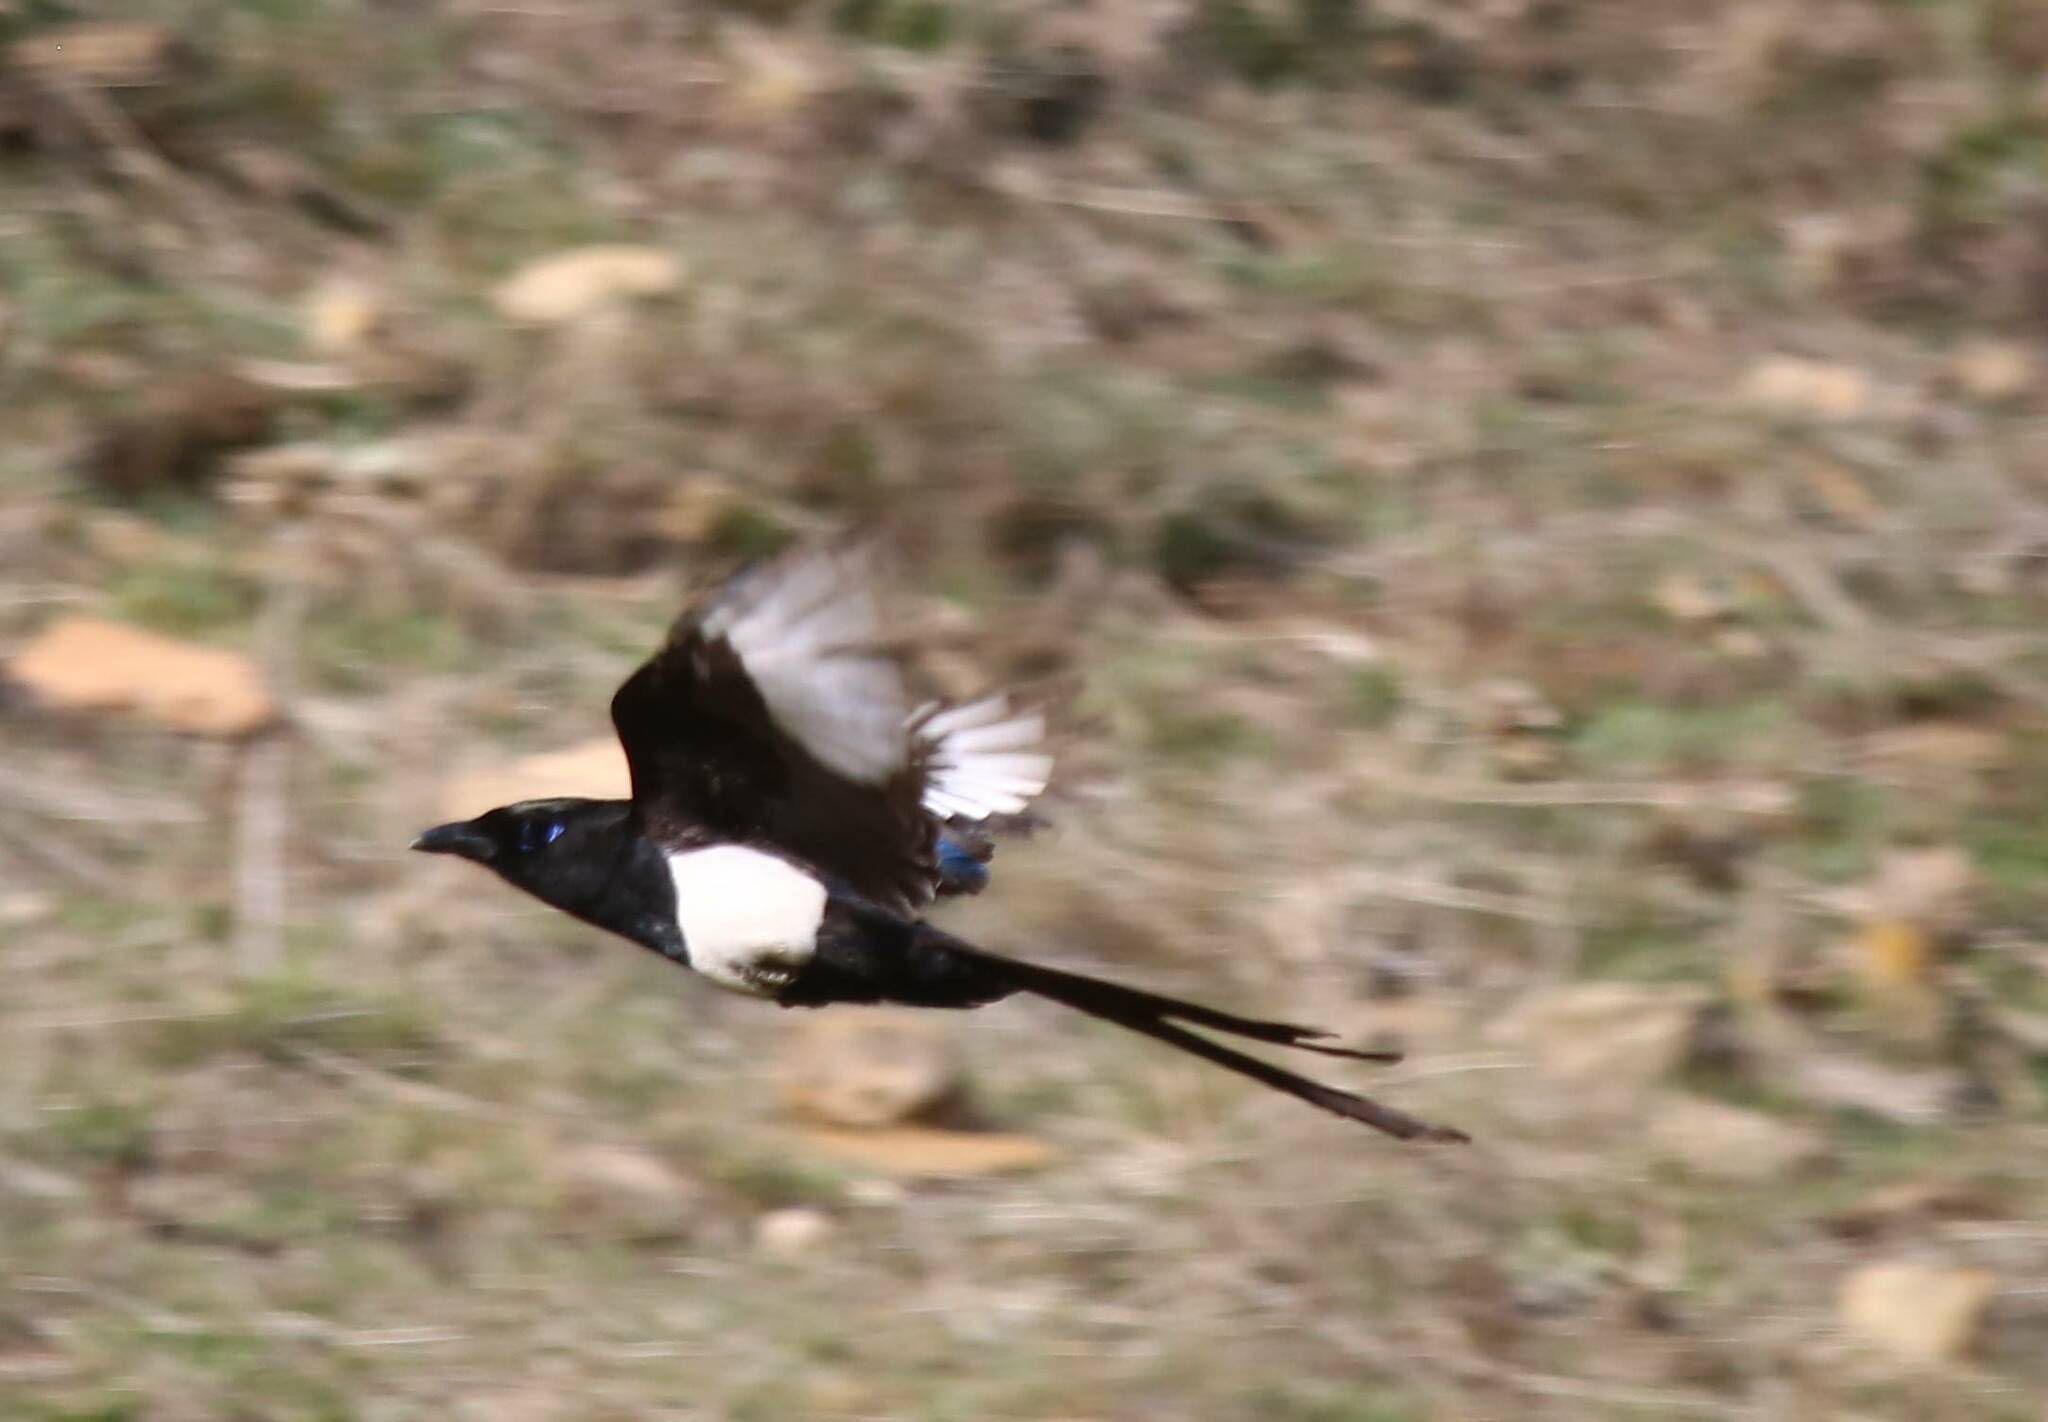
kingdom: Animalia
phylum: Chordata
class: Aves
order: Passeriformes
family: Corvidae
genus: Pica
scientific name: Pica mauritanica
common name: Maghreb magpie
